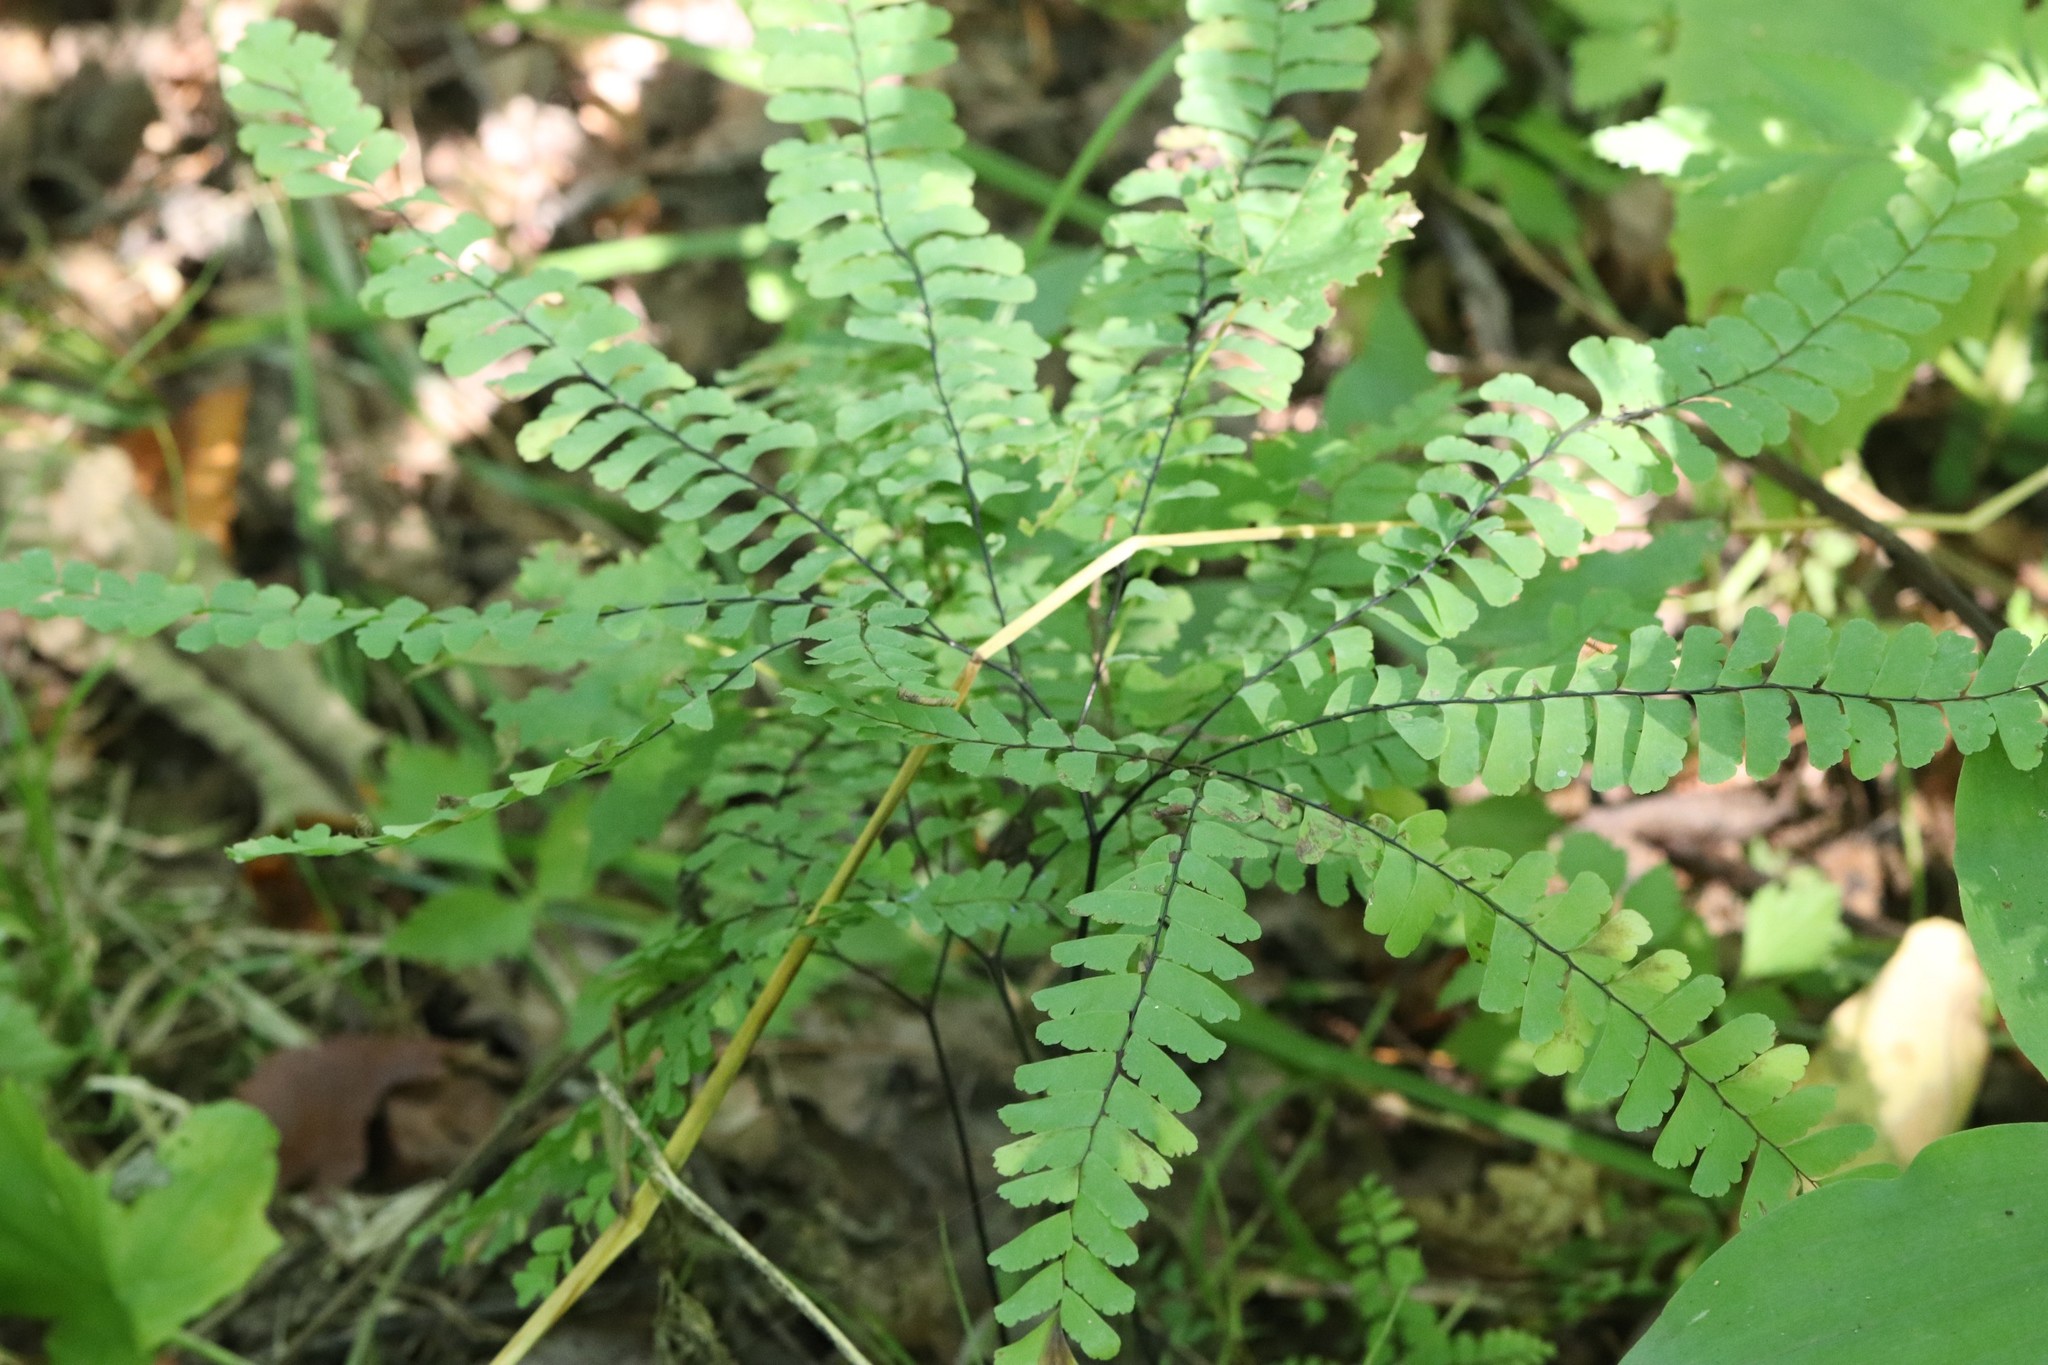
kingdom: Plantae
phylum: Tracheophyta
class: Polypodiopsida
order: Polypodiales
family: Pteridaceae
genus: Adiantum
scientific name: Adiantum pedatum
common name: Five-finger fern
